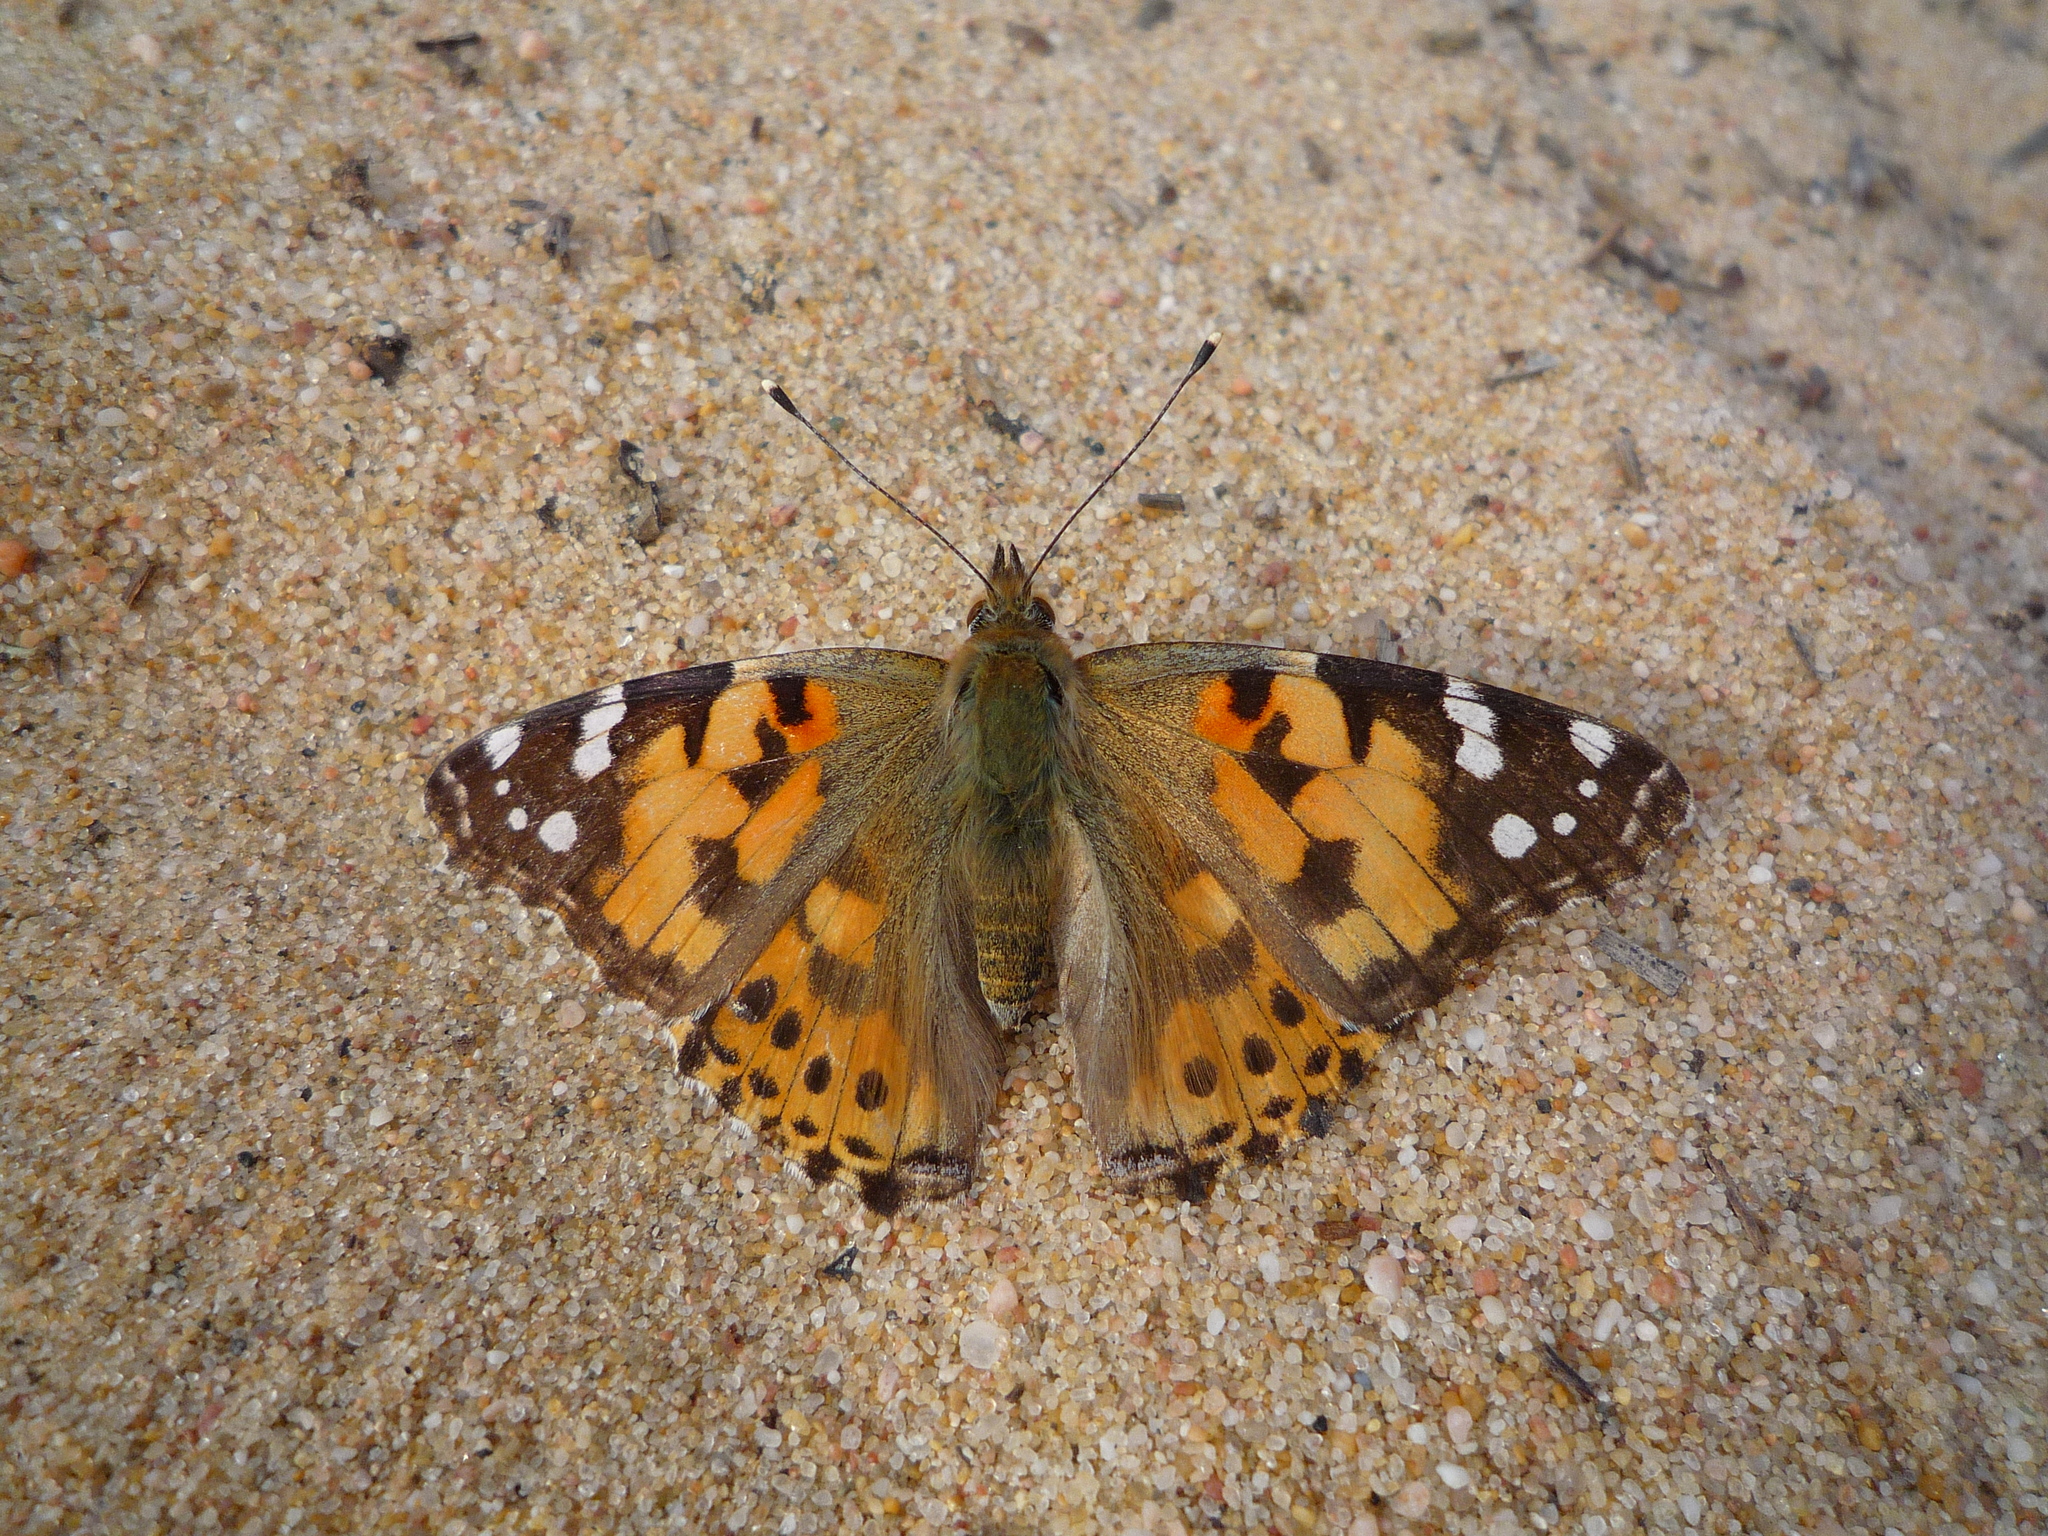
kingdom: Animalia
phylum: Arthropoda
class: Insecta
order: Lepidoptera
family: Nymphalidae
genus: Vanessa
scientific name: Vanessa cardui
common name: Painted lady
